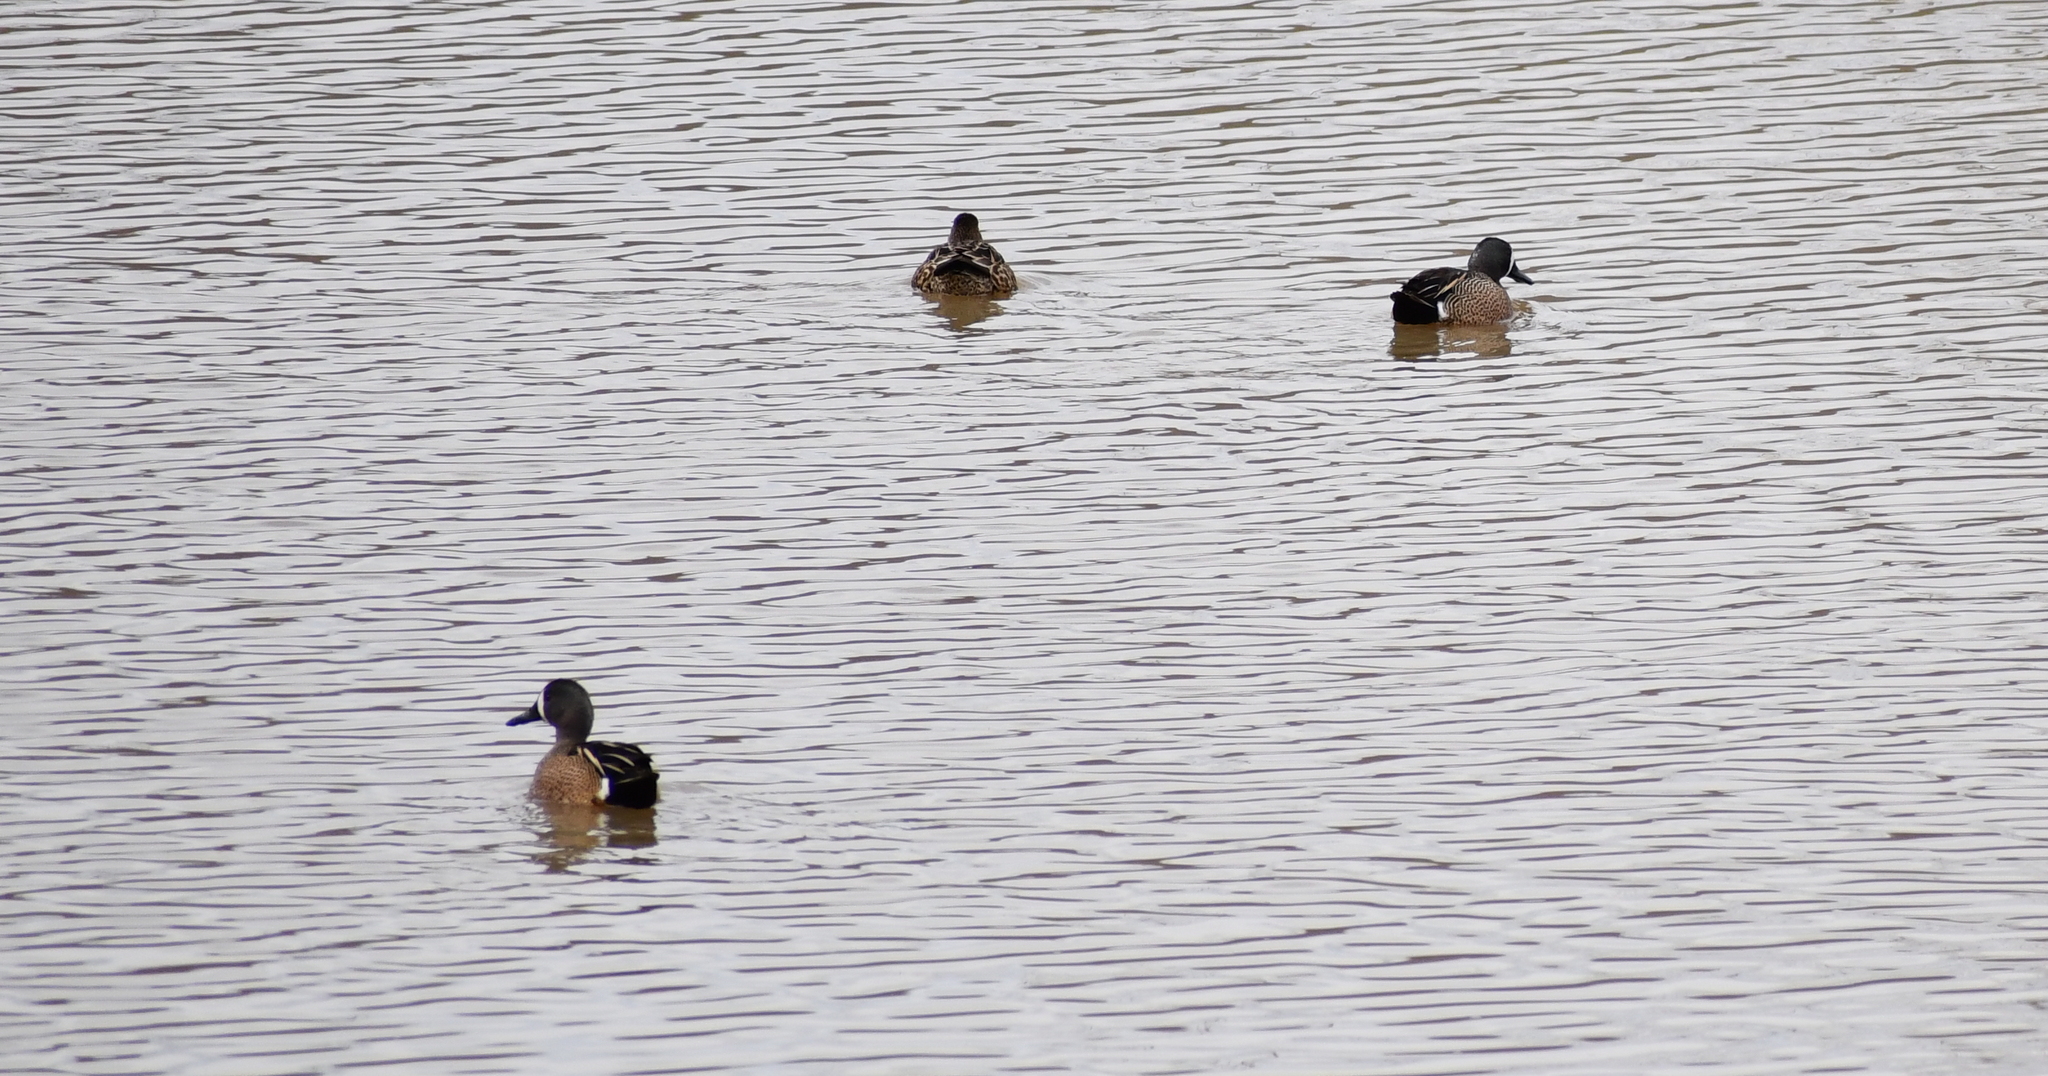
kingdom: Animalia
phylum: Chordata
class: Aves
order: Anseriformes
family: Anatidae
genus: Spatula
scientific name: Spatula discors
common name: Blue-winged teal
